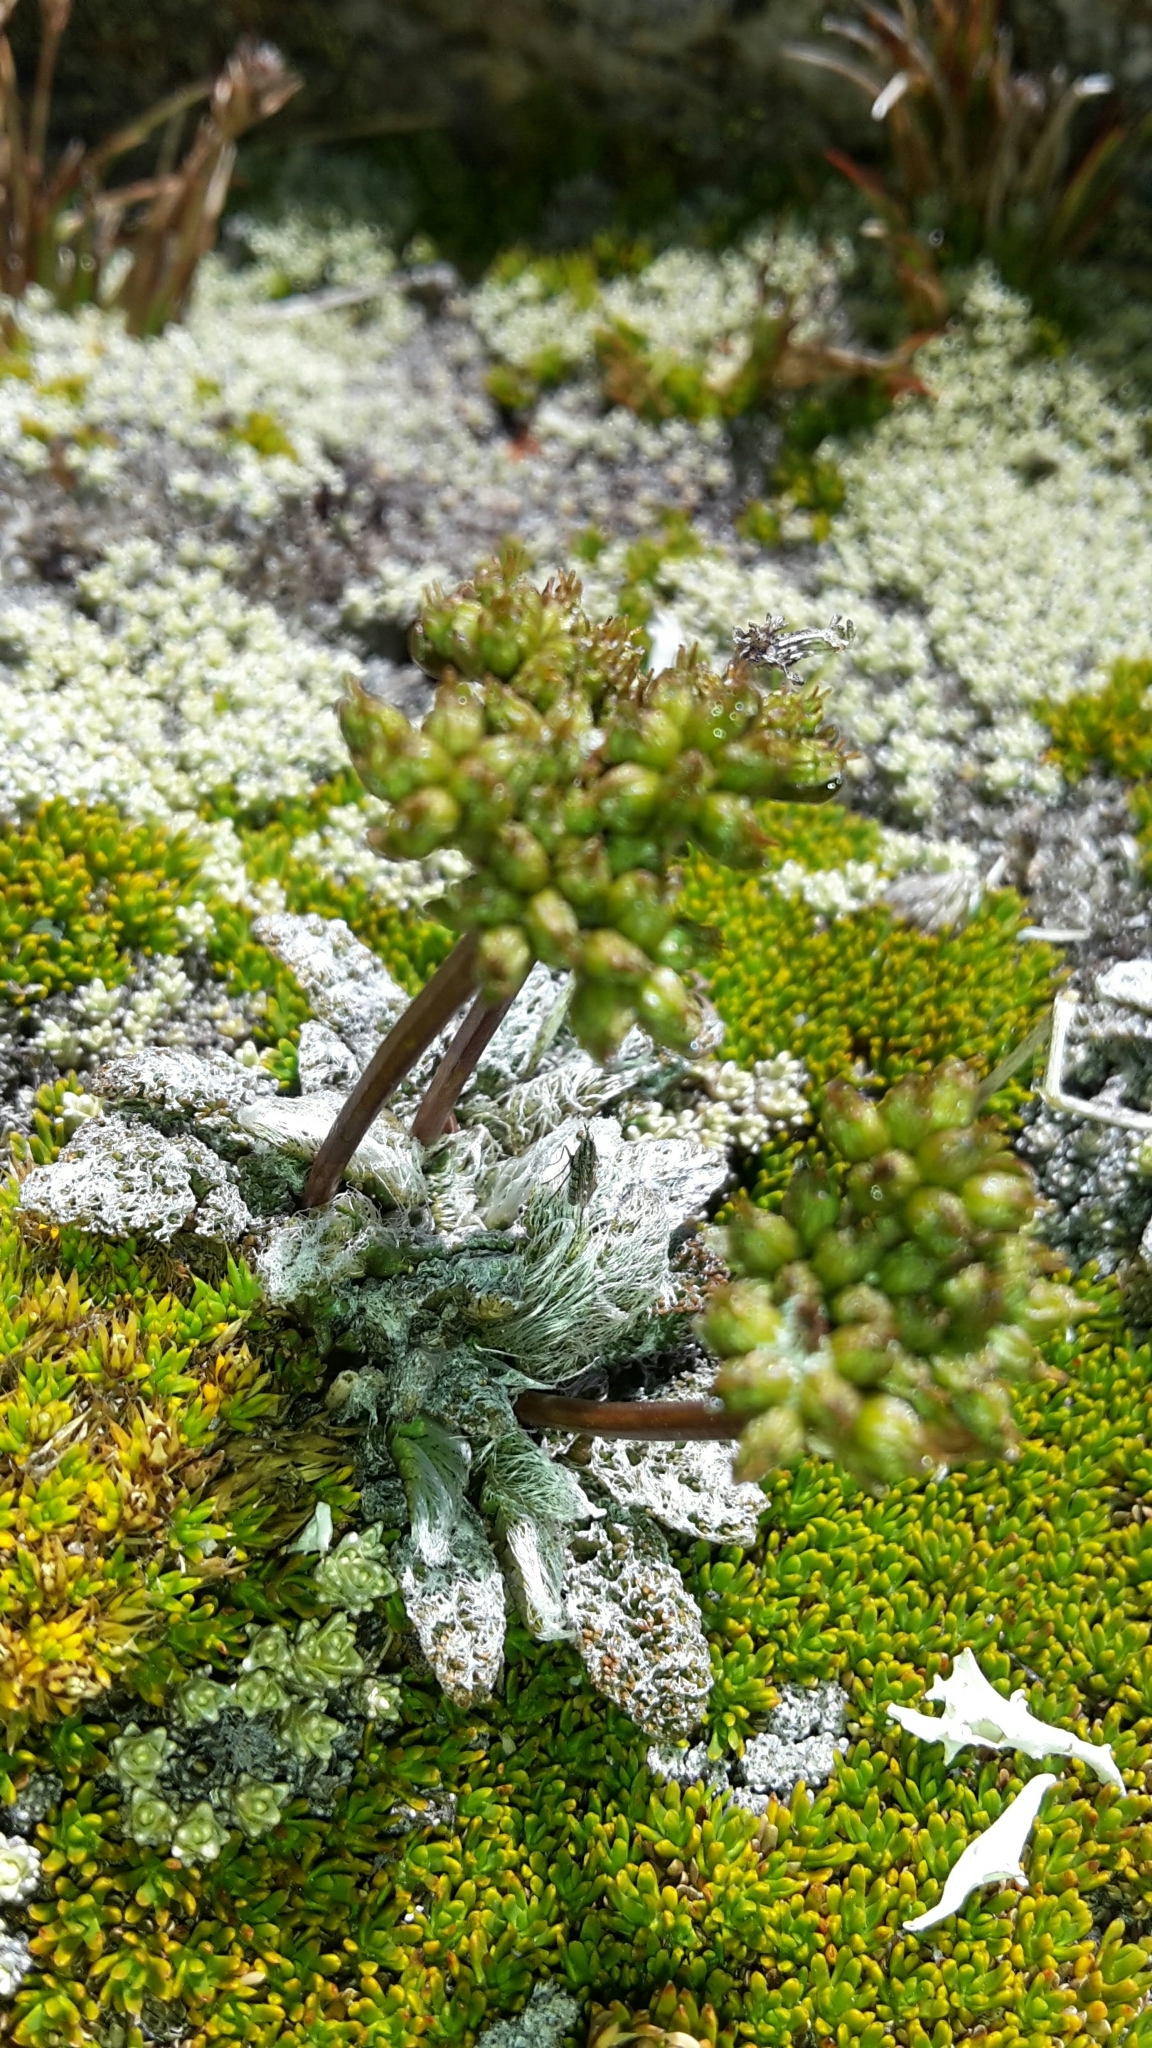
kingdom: Plantae
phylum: Tracheophyta
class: Magnoliopsida
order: Apiales
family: Apiaceae
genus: Anisotome
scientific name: Anisotome lanuginosa
